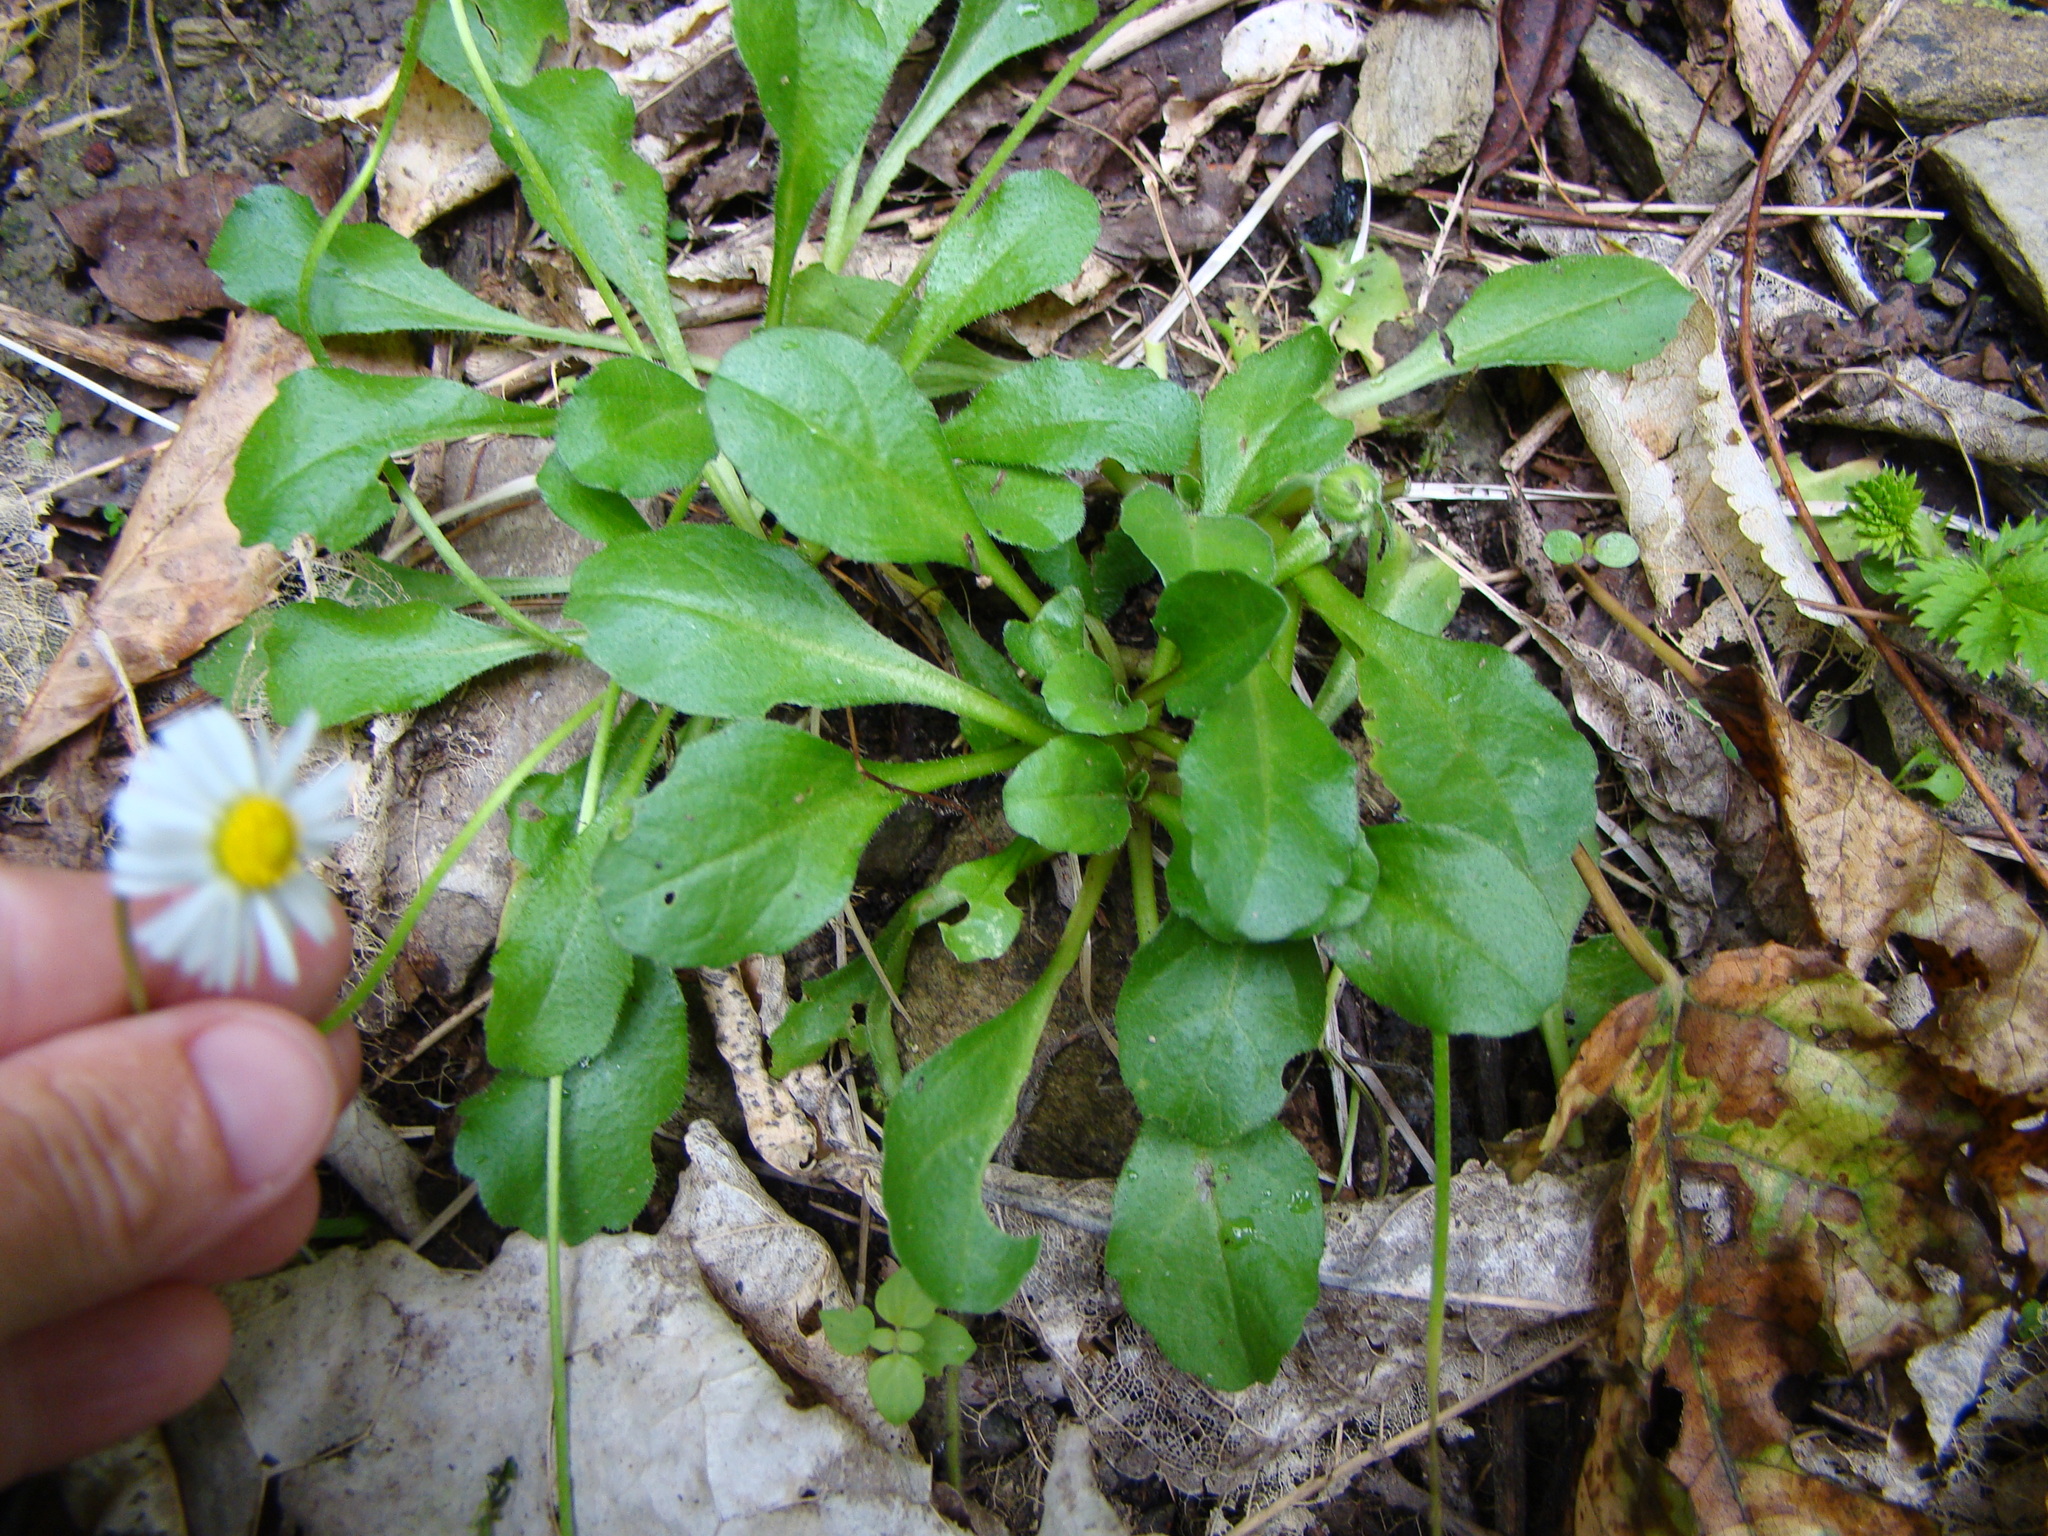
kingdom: Plantae
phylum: Tracheophyta
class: Magnoliopsida
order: Asterales
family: Asteraceae
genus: Bellis
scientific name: Bellis perennis
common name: Lawndaisy
